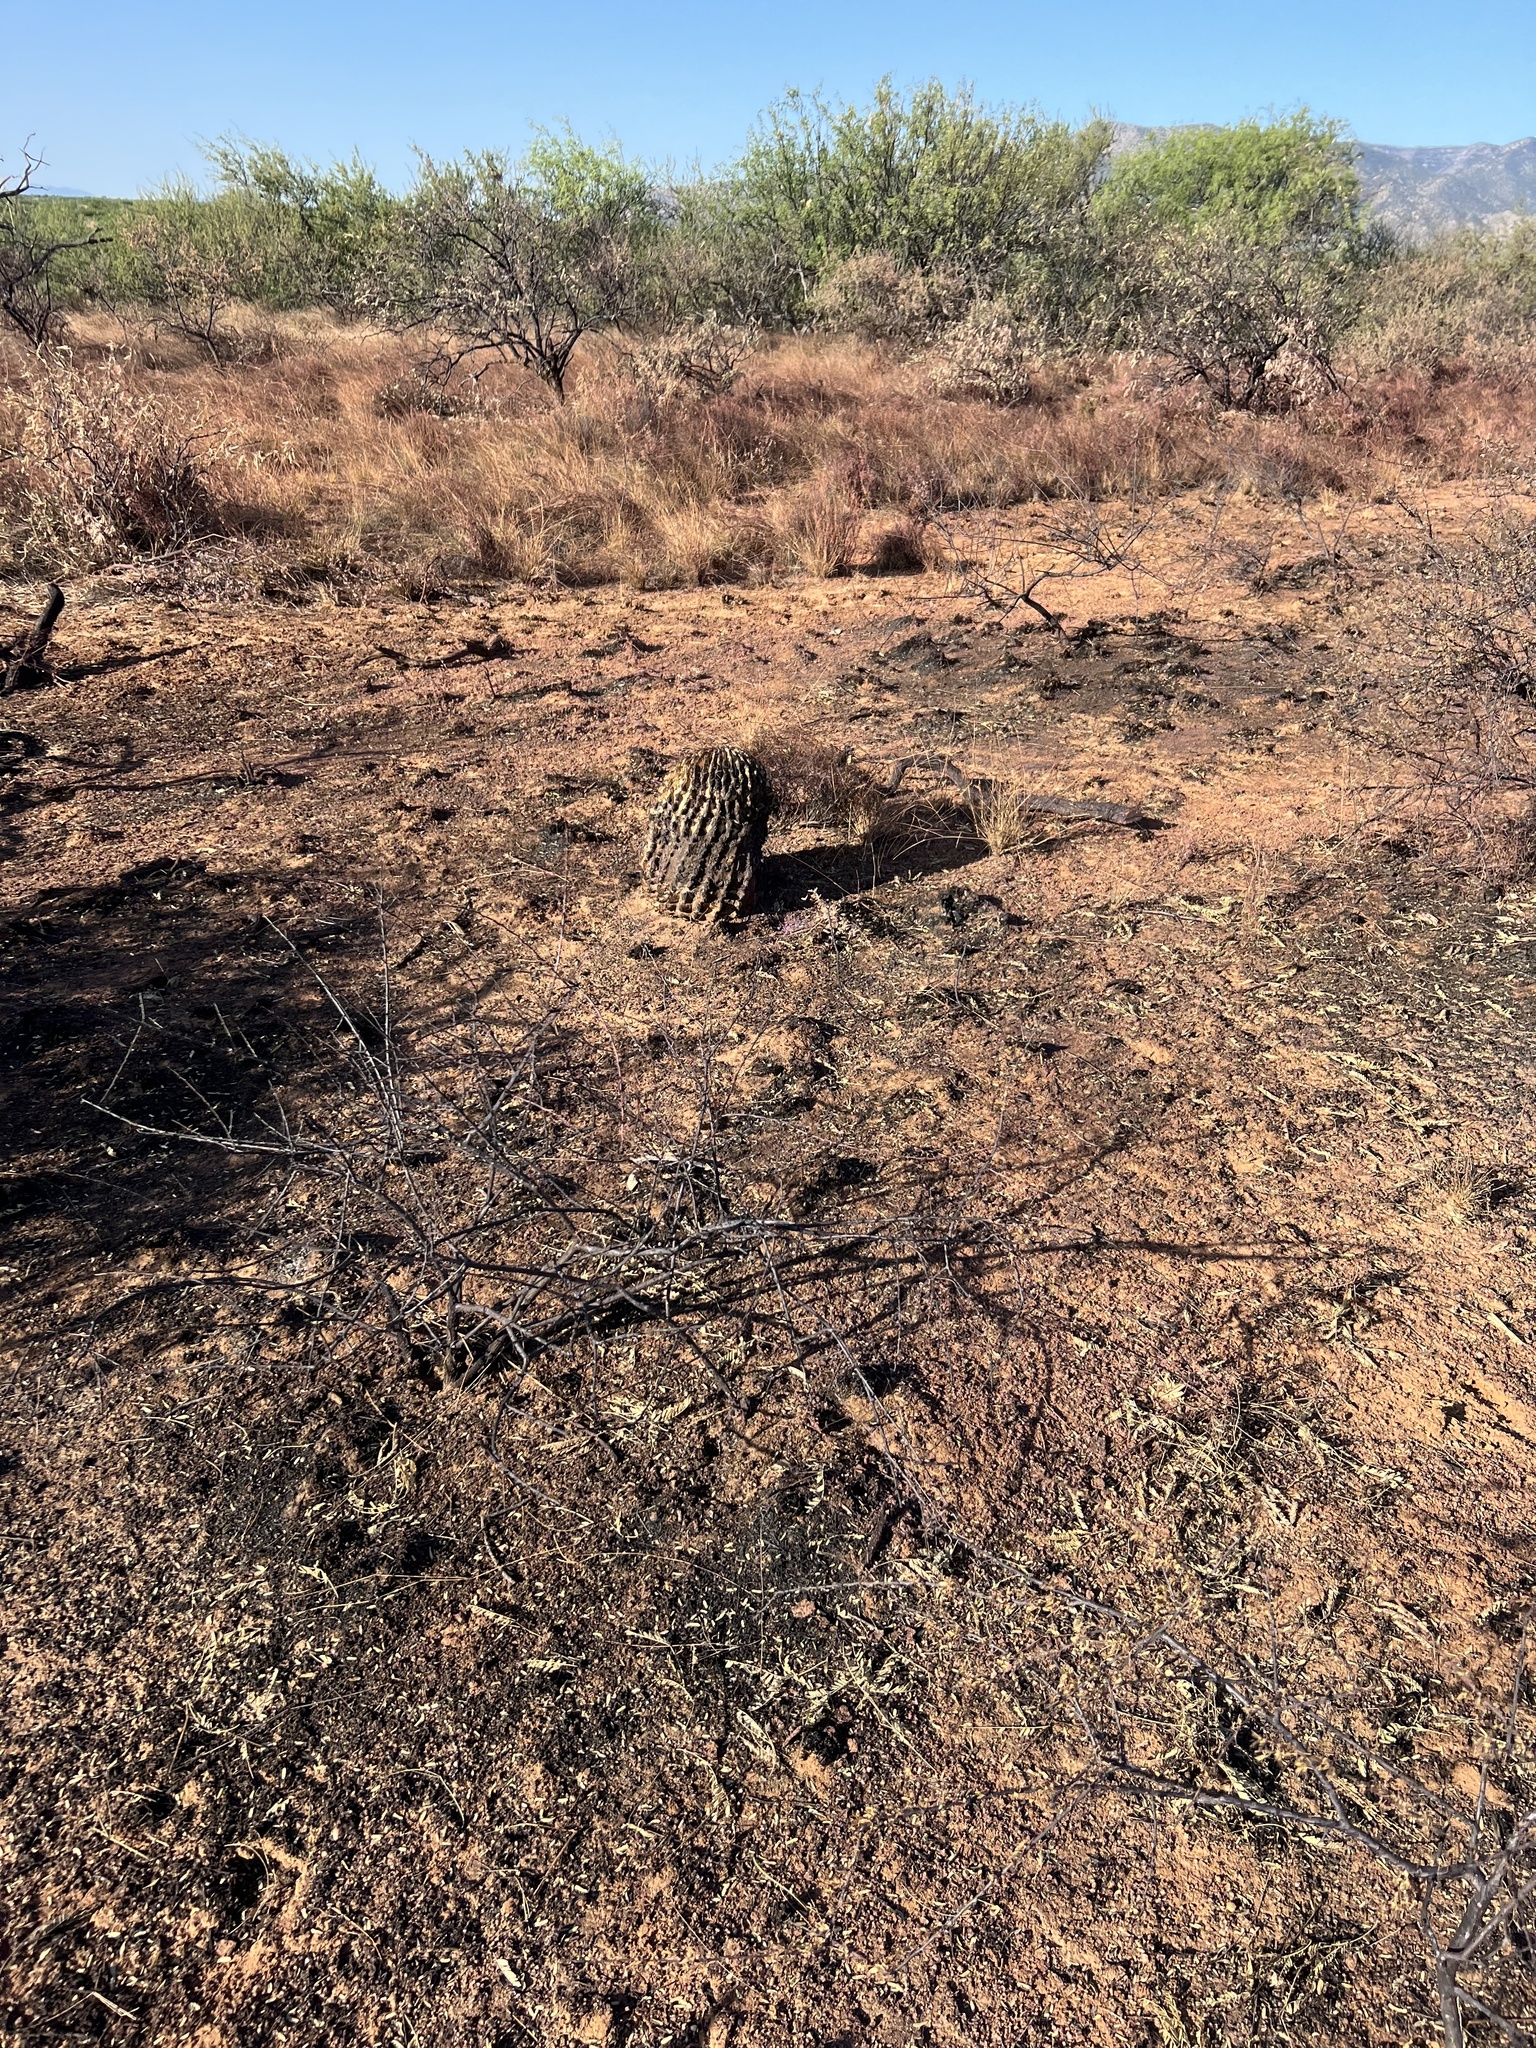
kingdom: Plantae
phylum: Tracheophyta
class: Magnoliopsida
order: Caryophyllales
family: Cactaceae
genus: Ferocactus
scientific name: Ferocactus wislizeni
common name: Candy barrel cactus
